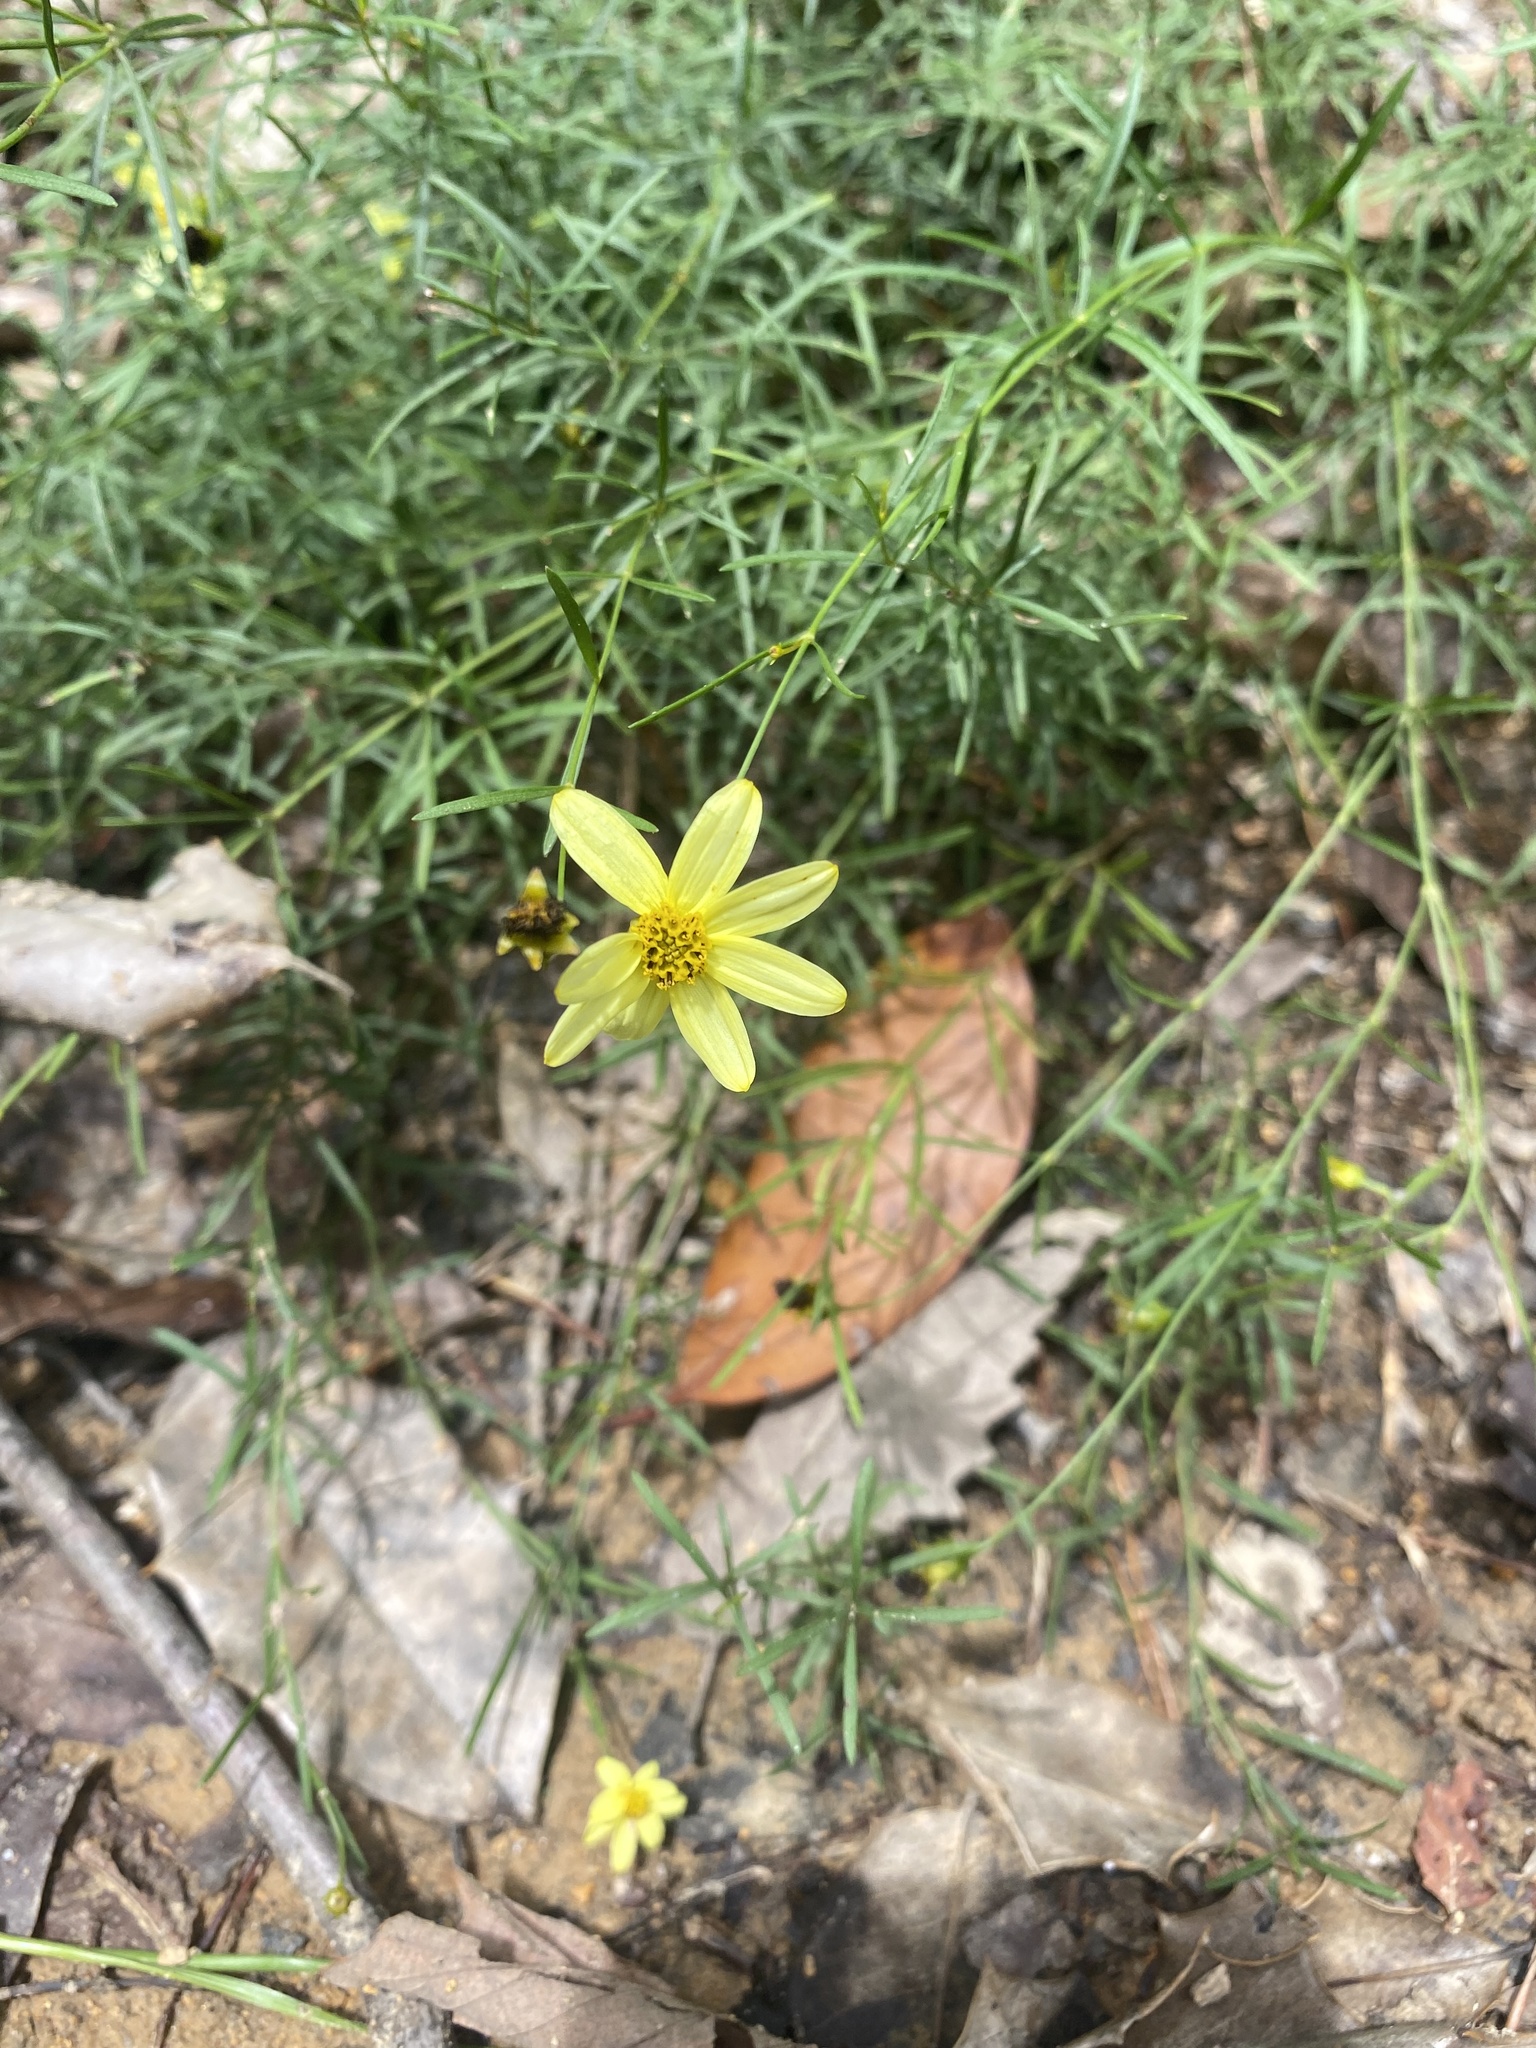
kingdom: Plantae
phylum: Tracheophyta
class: Magnoliopsida
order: Asterales
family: Asteraceae
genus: Coreopsis
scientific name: Coreopsis verticillata
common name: Whorled tickseed
